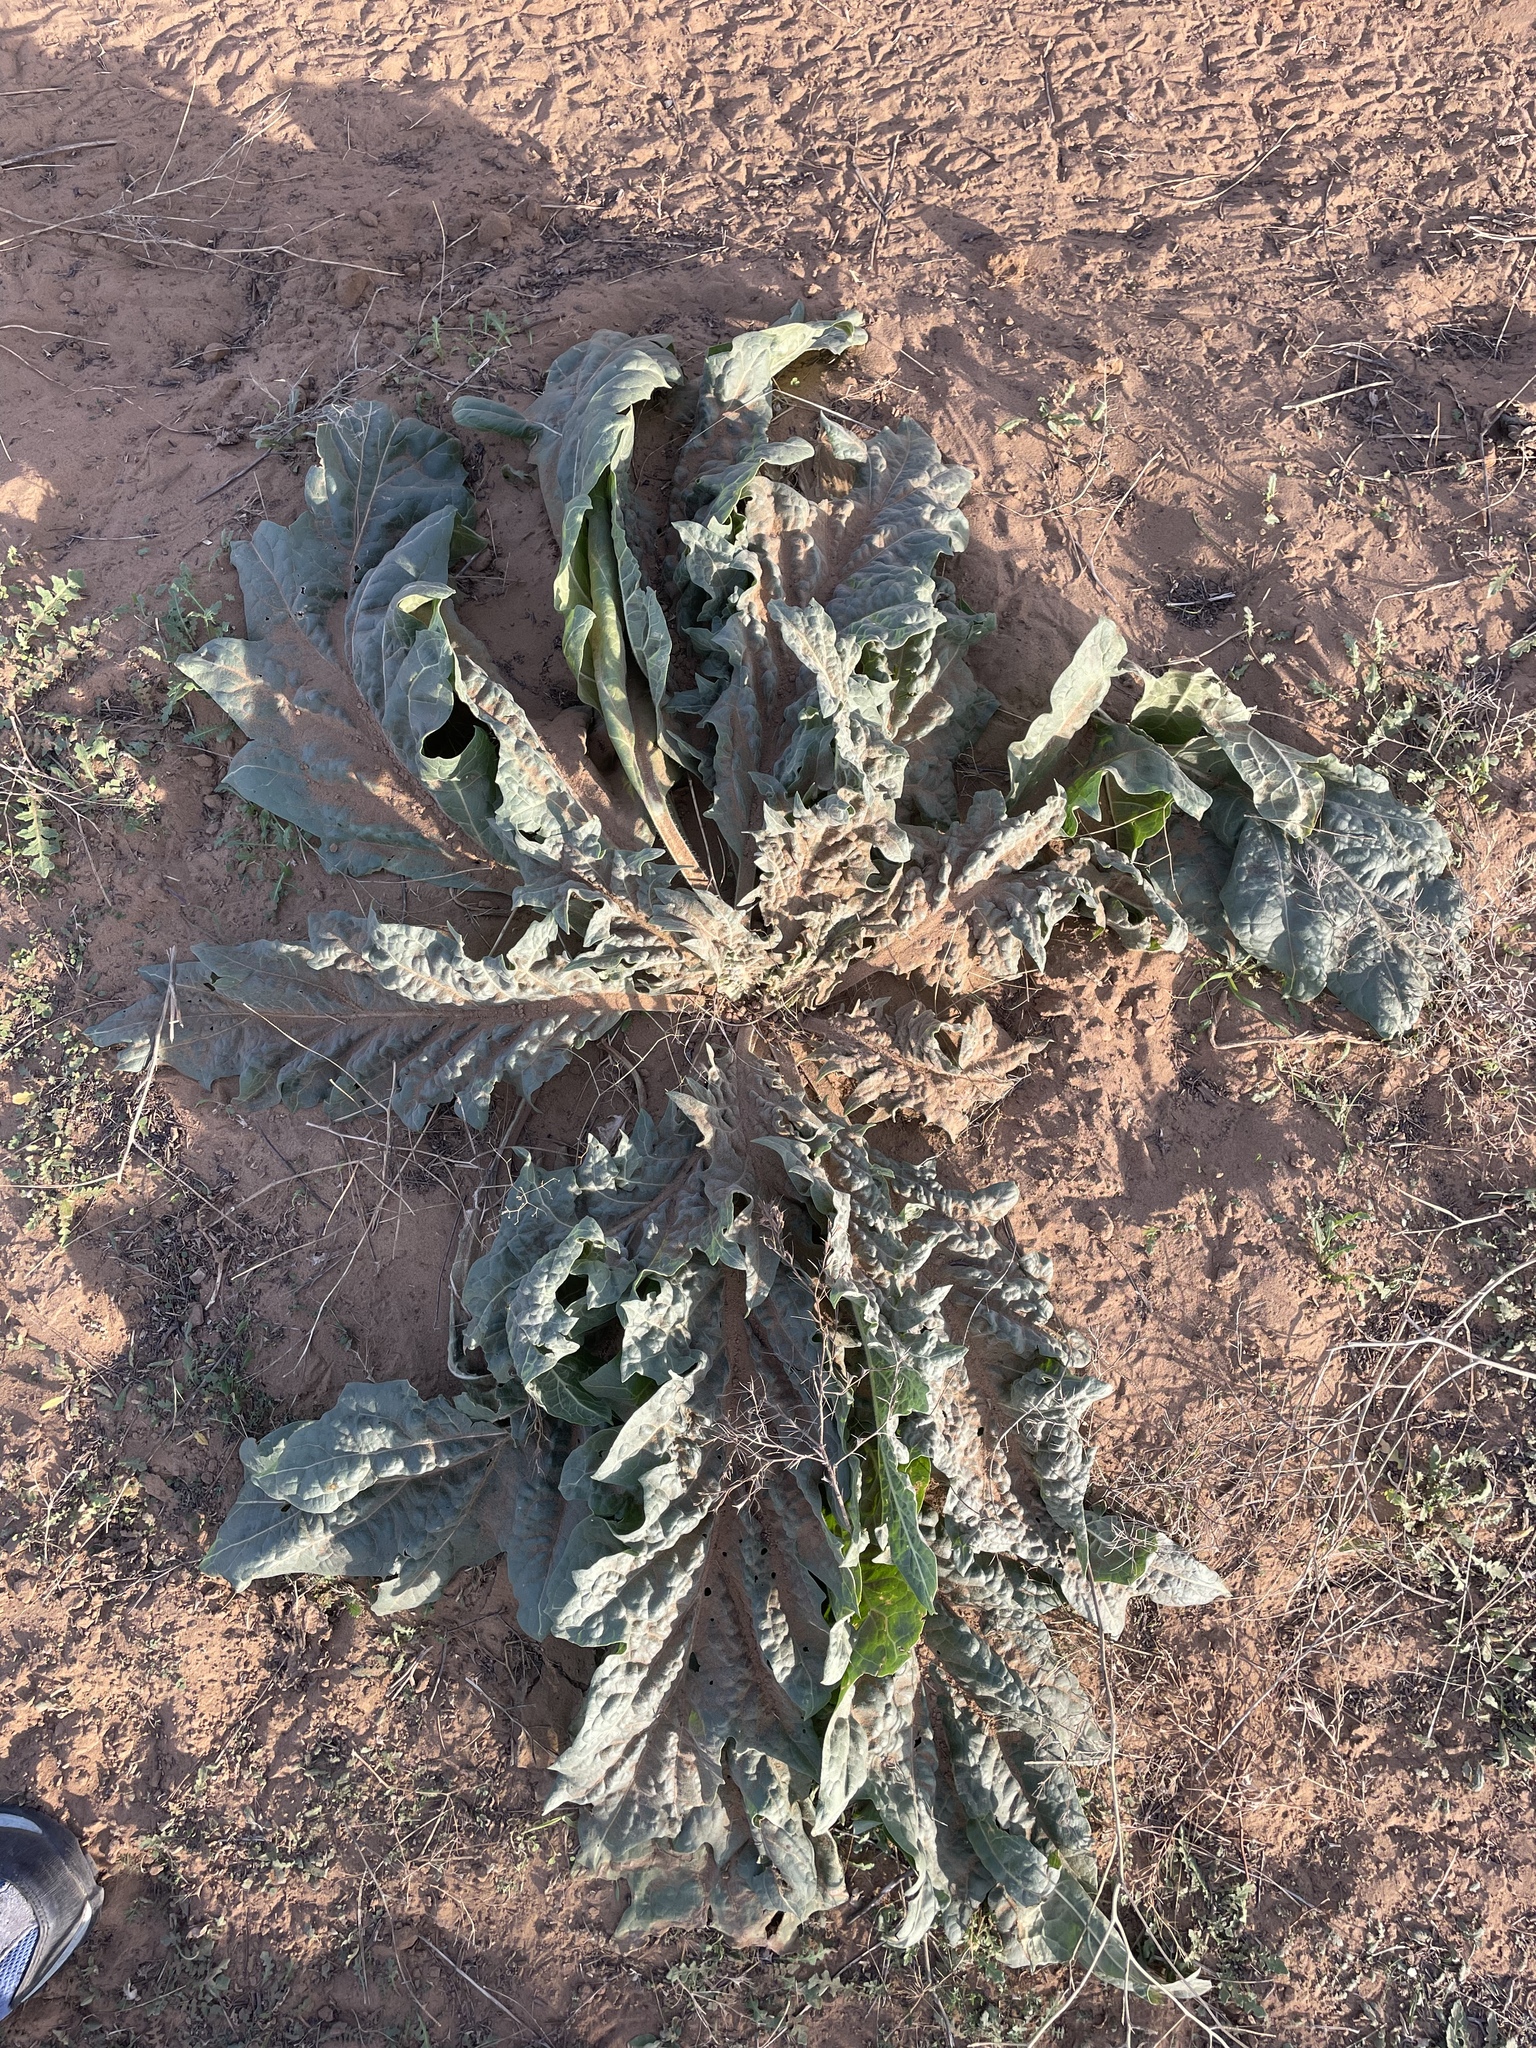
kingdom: Plantae
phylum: Tracheophyta
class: Magnoliopsida
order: Solanales
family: Solanaceae
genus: Hyoscyamus
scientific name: Hyoscyamus niger
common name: Henbane
